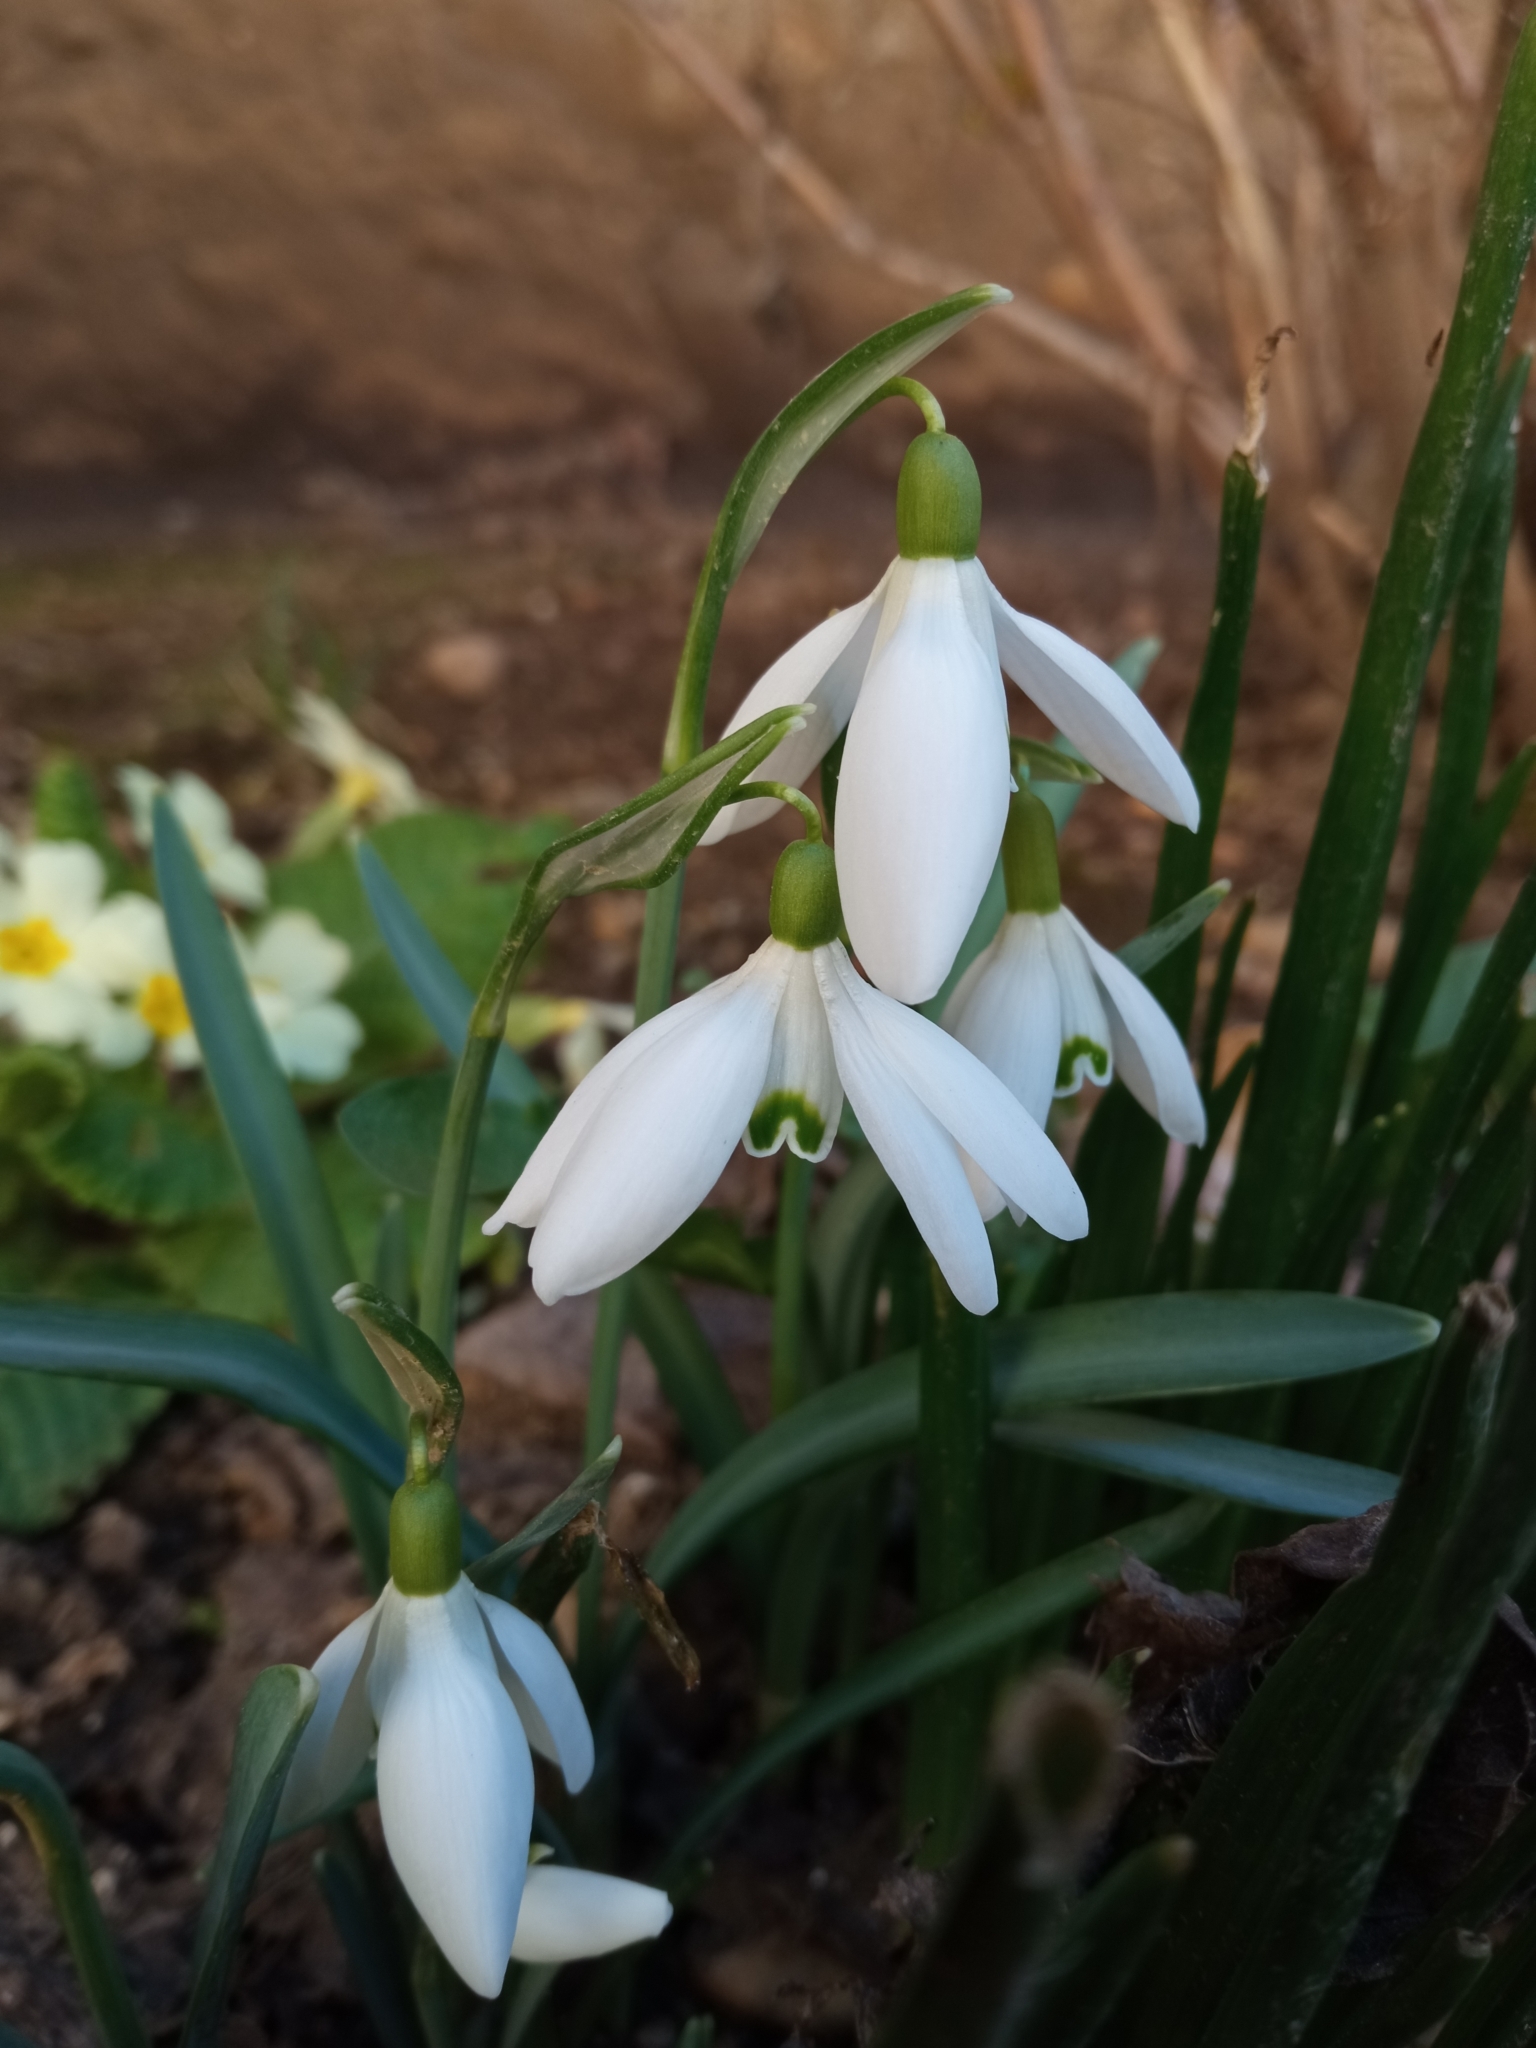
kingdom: Plantae
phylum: Tracheophyta
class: Liliopsida
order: Asparagales
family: Amaryllidaceae
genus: Galanthus
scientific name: Galanthus nivalis
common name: Snowdrop
